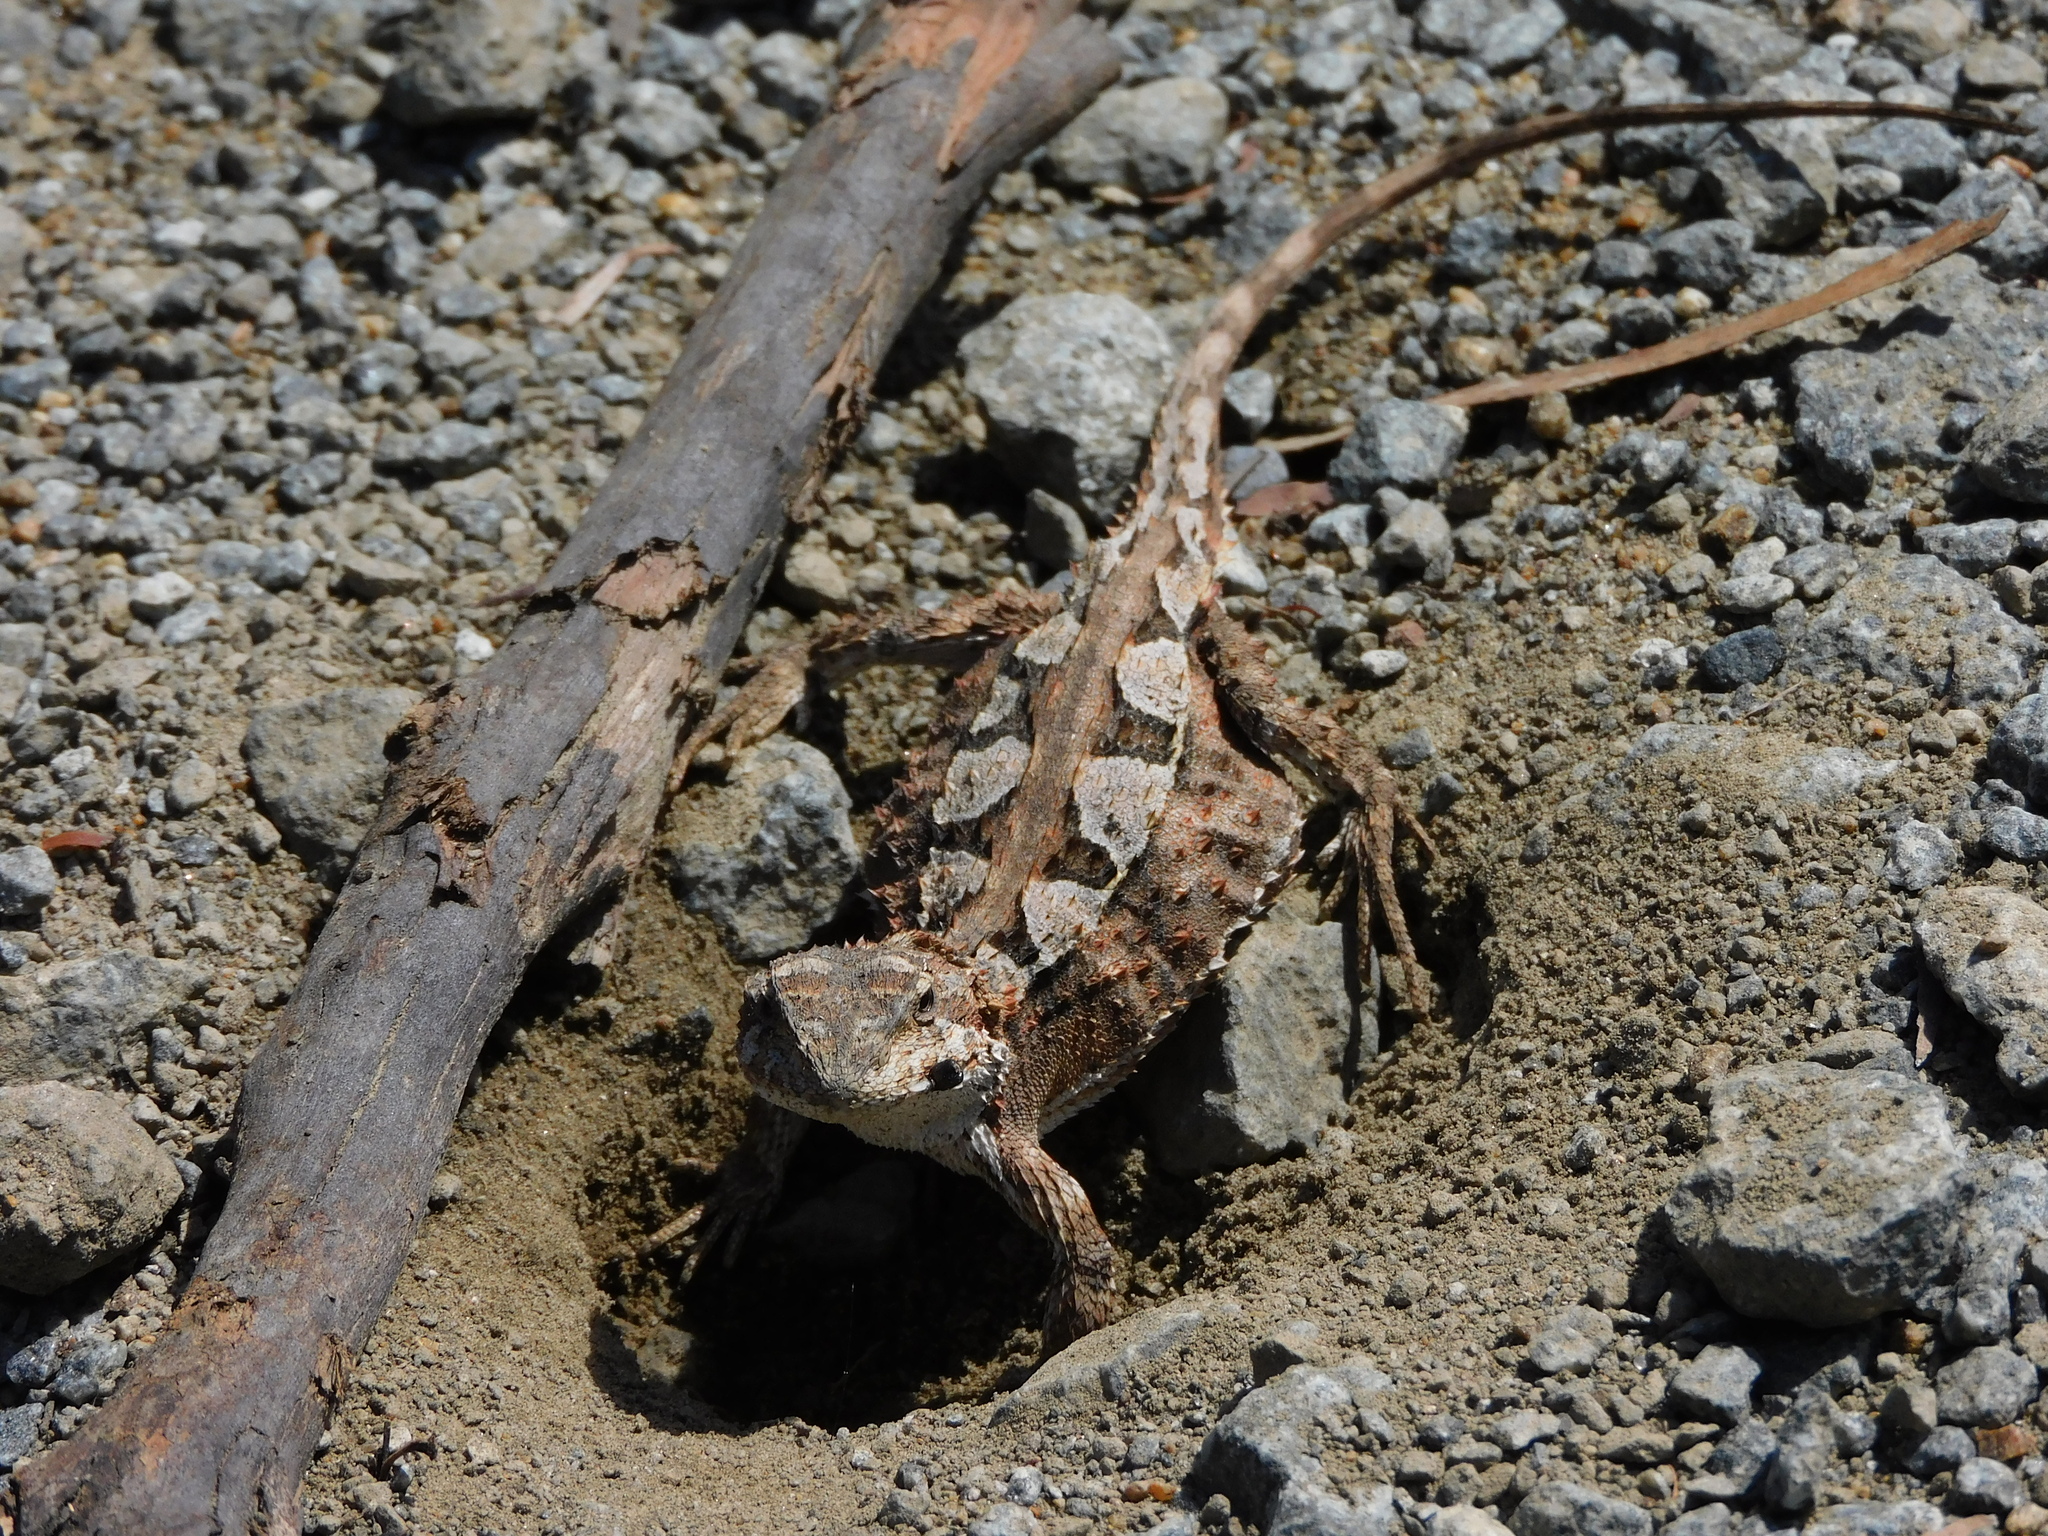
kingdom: Animalia
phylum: Chordata
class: Squamata
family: Agamidae
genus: Rankinia
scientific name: Rankinia diemensis
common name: Mountain dragon
